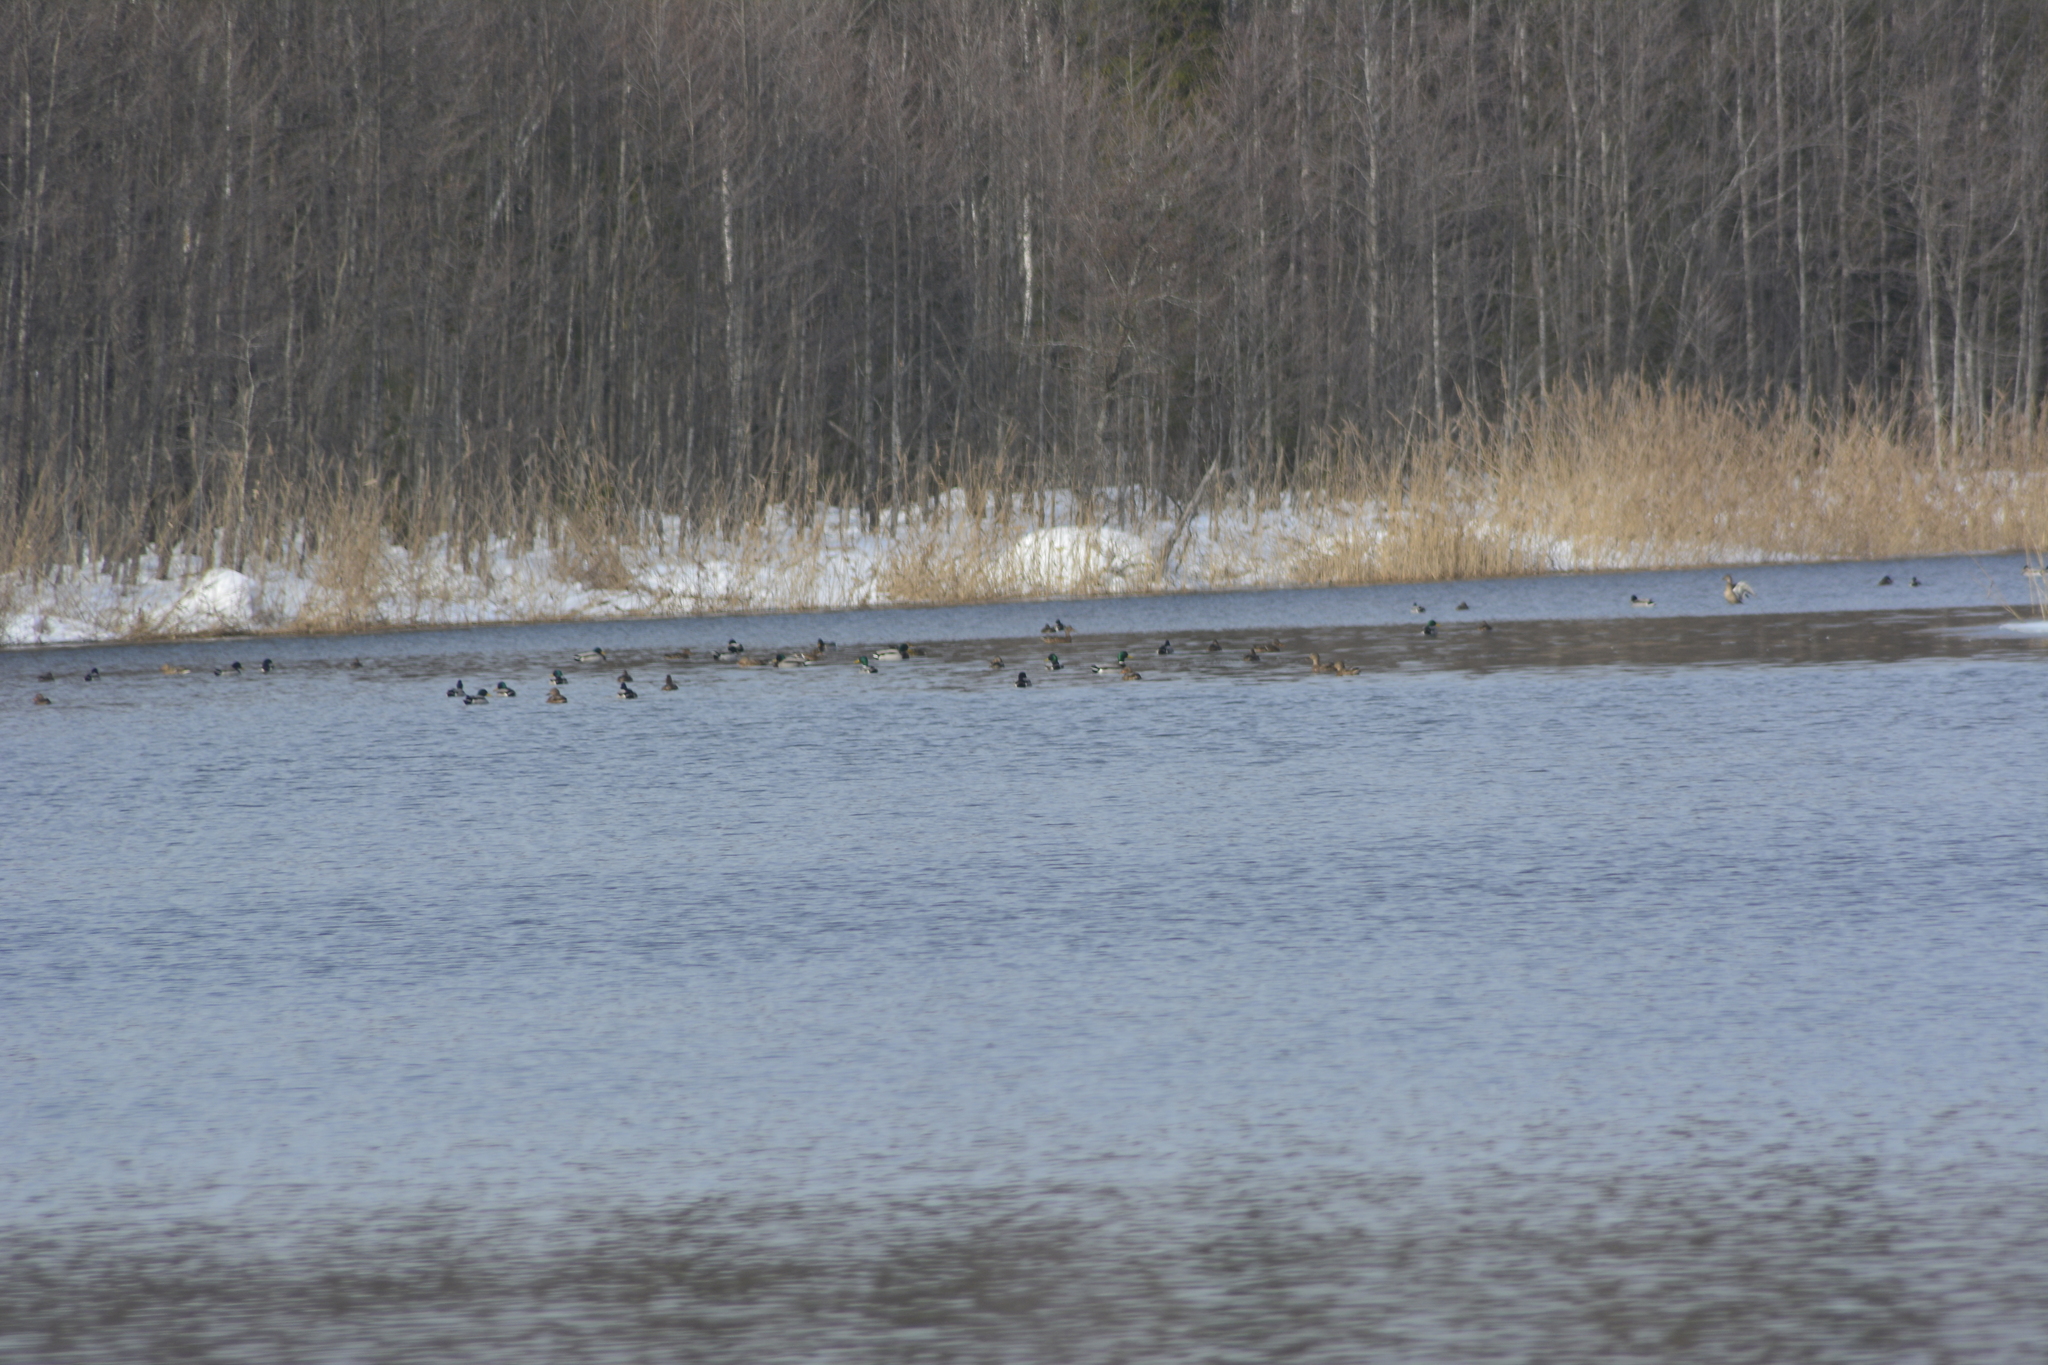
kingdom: Animalia
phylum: Chordata
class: Aves
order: Anseriformes
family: Anatidae
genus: Anas
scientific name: Anas platyrhynchos
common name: Mallard
